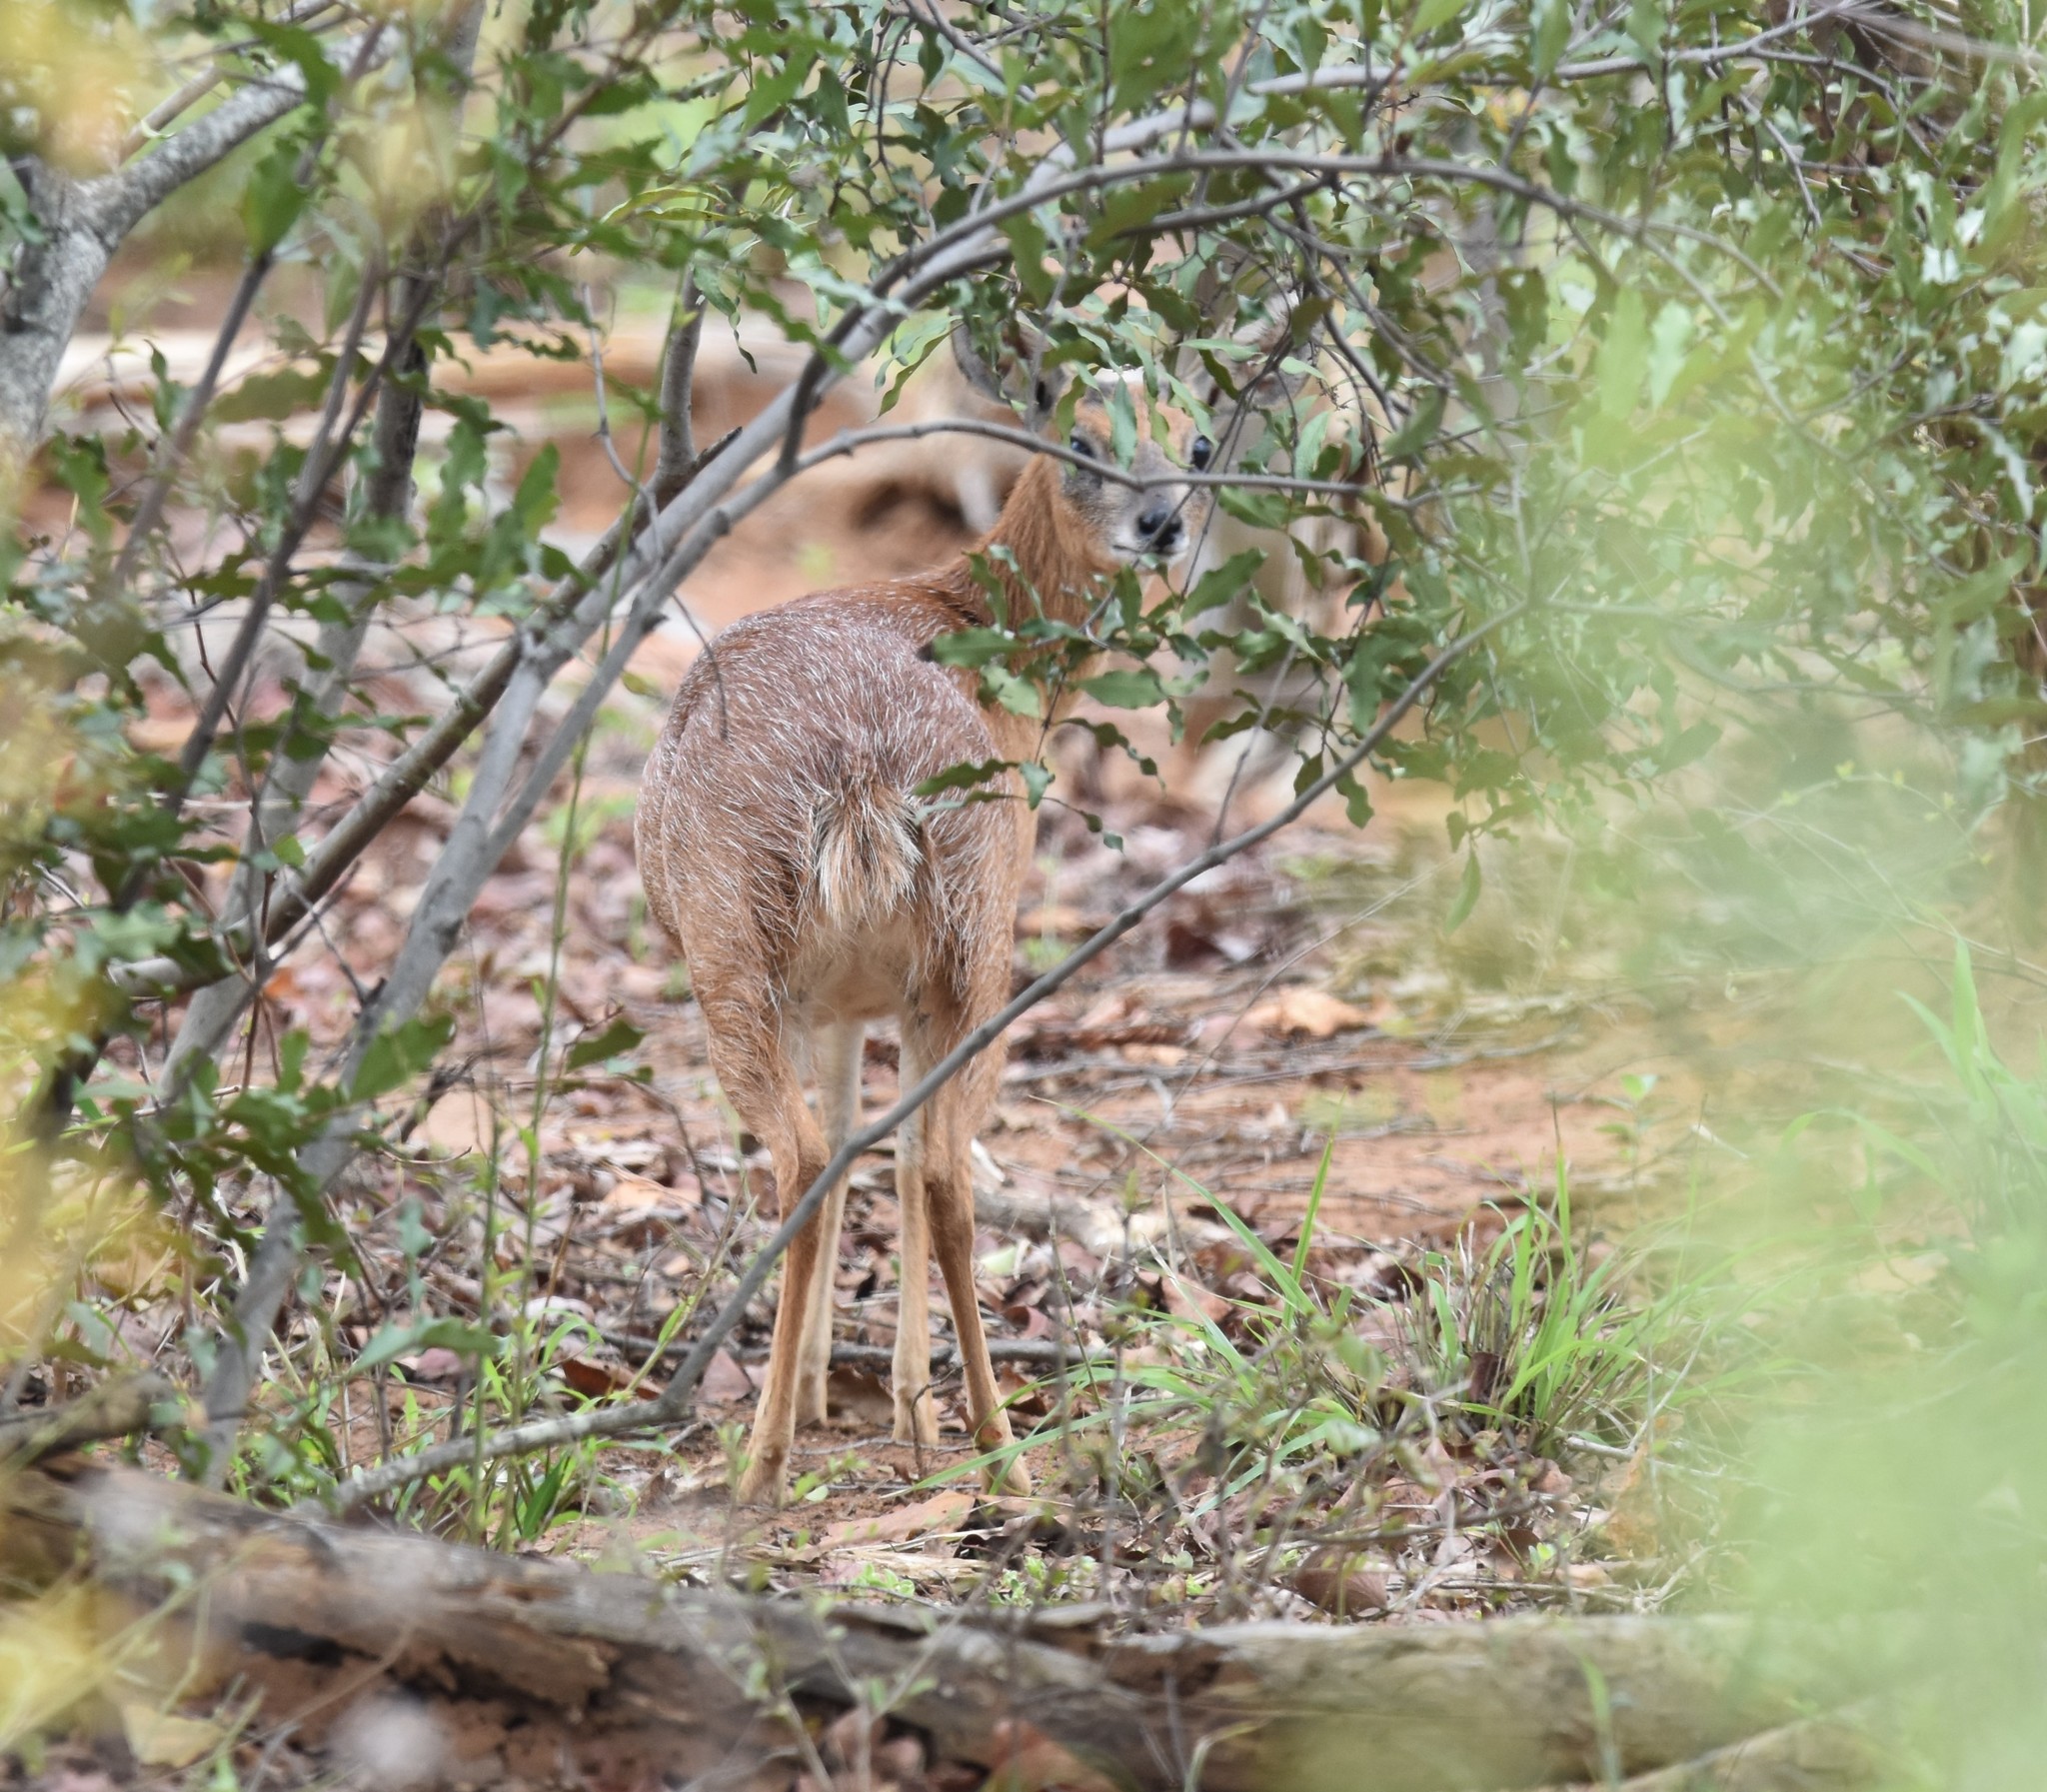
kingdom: Animalia
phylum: Chordata
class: Mammalia
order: Artiodactyla
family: Bovidae
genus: Raphicerus
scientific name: Raphicerus sharpei
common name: Sharpe's grysbok
